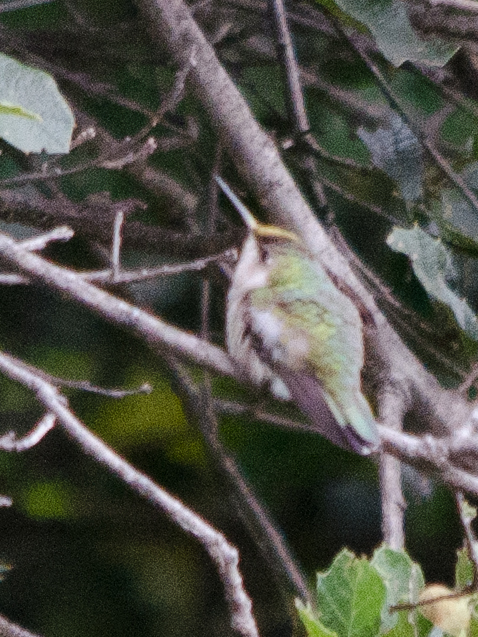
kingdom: Animalia
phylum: Chordata
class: Aves
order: Apodiformes
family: Trochilidae
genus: Archilochus
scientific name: Archilochus colubris
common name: Ruby-throated hummingbird
